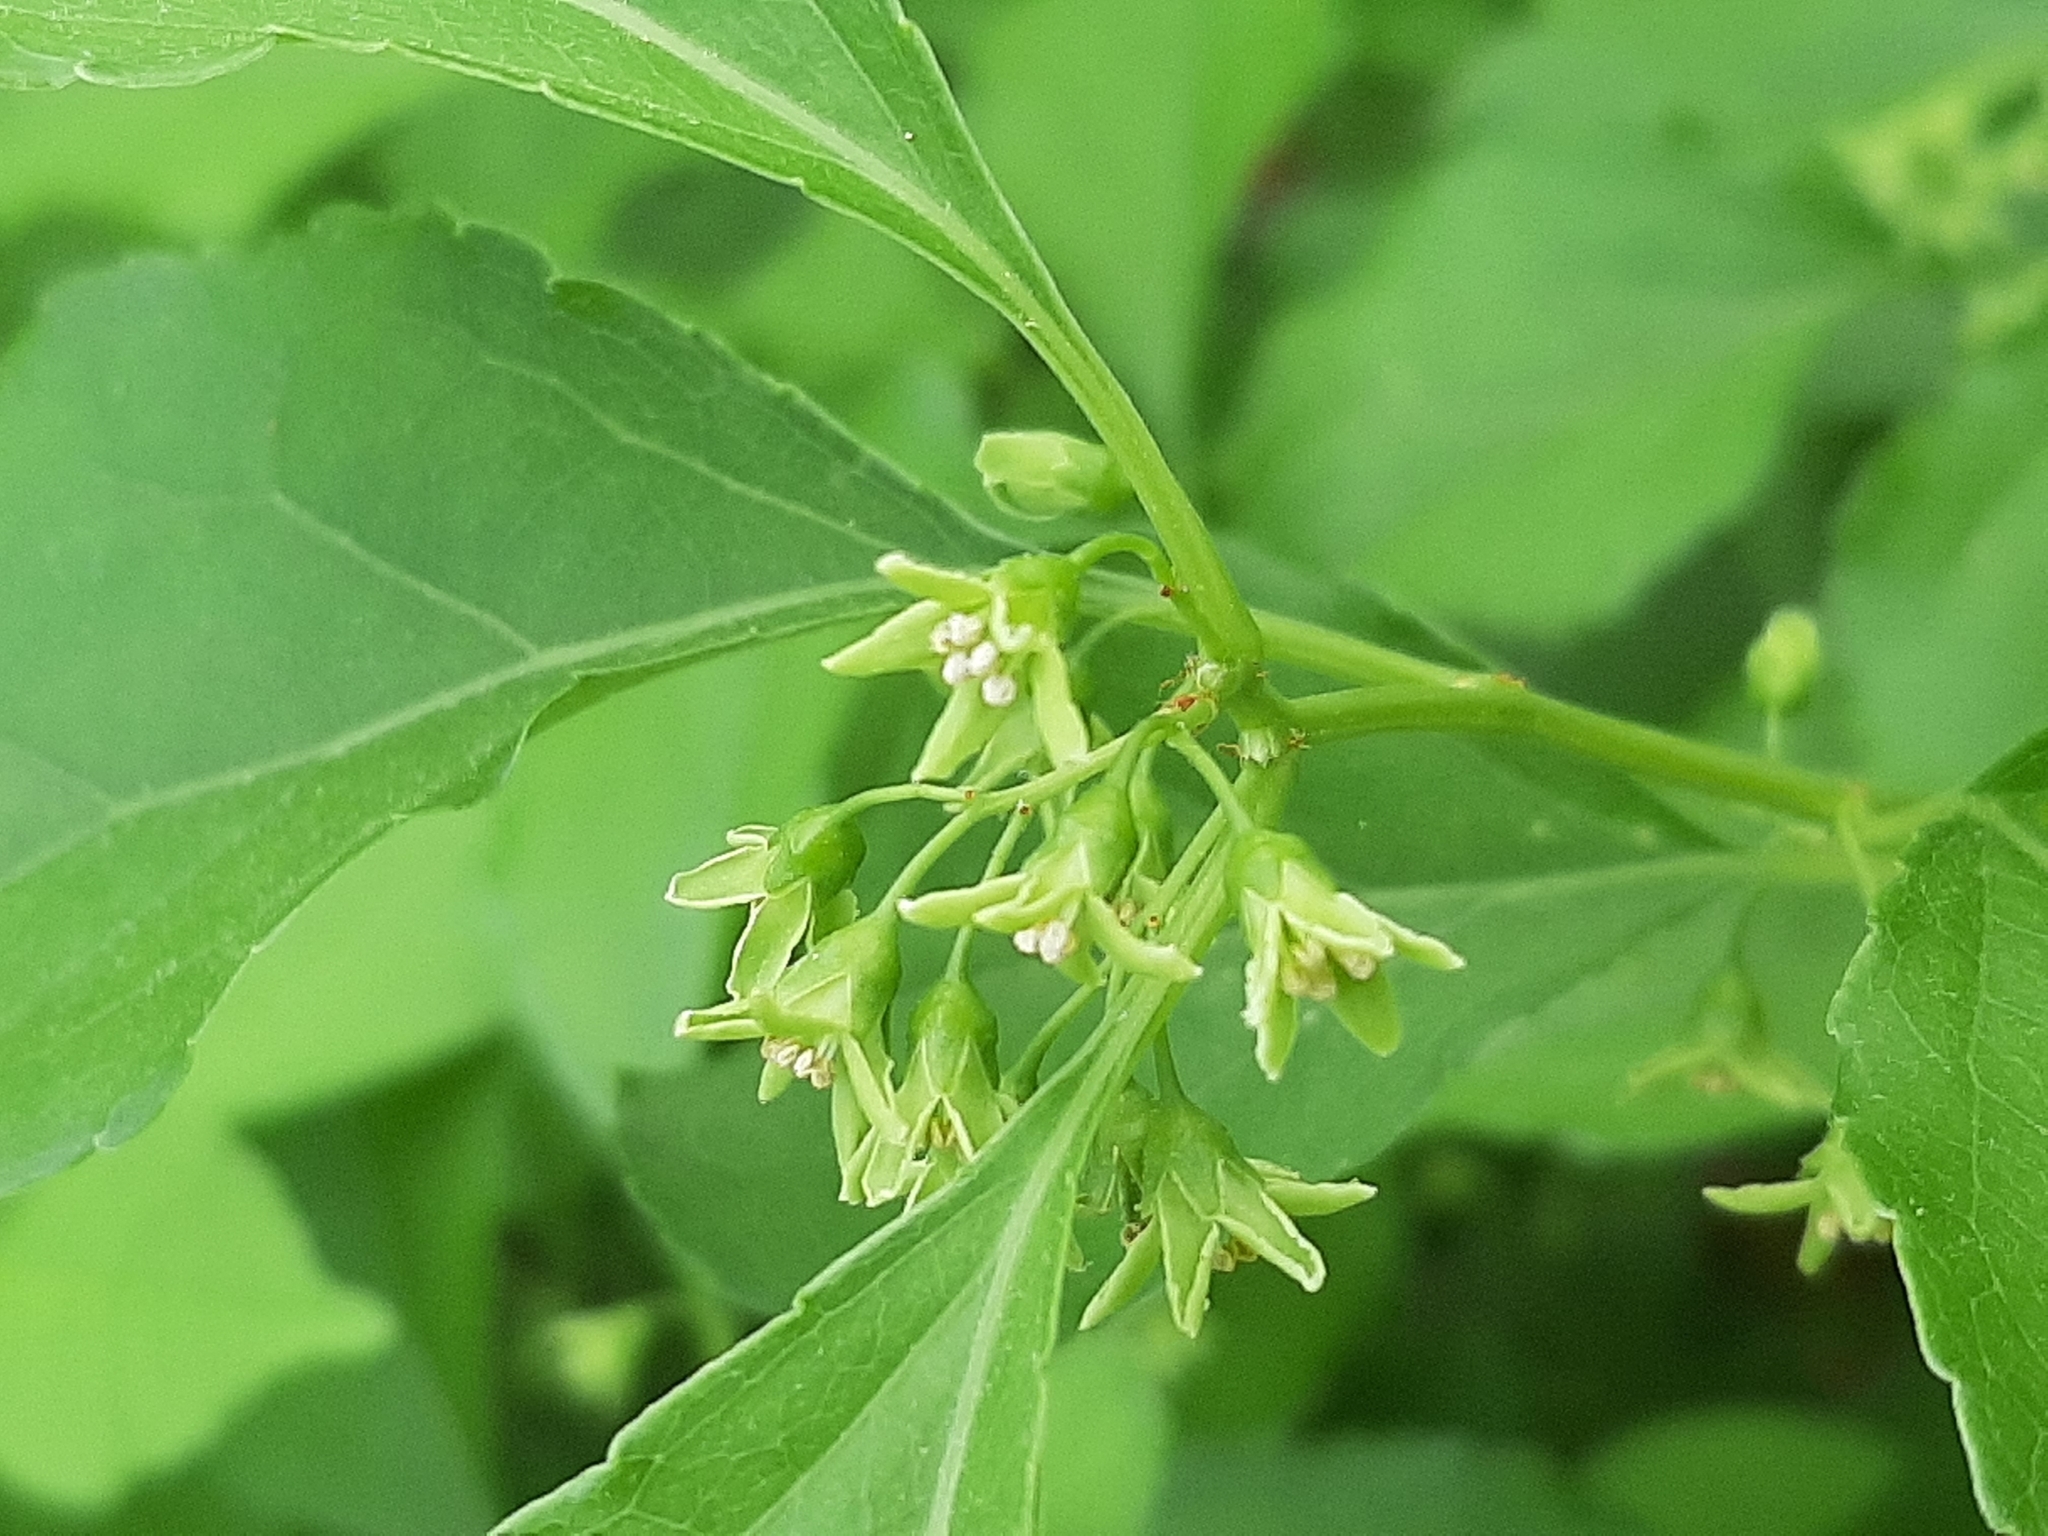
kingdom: Plantae
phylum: Tracheophyta
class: Magnoliopsida
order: Celastrales
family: Celastraceae
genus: Celastrus
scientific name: Celastrus orbiculatus
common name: Oriental bittersweet
